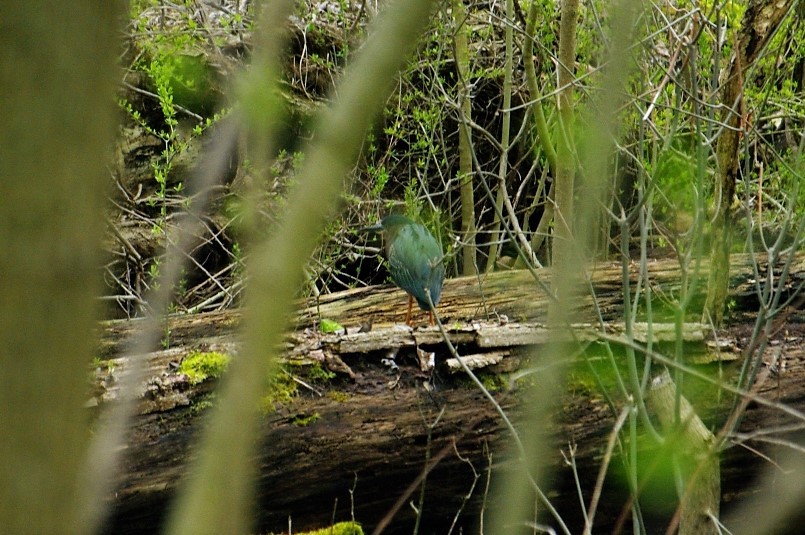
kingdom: Animalia
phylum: Chordata
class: Aves
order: Pelecaniformes
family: Ardeidae
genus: Butorides
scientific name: Butorides virescens
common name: Green heron
